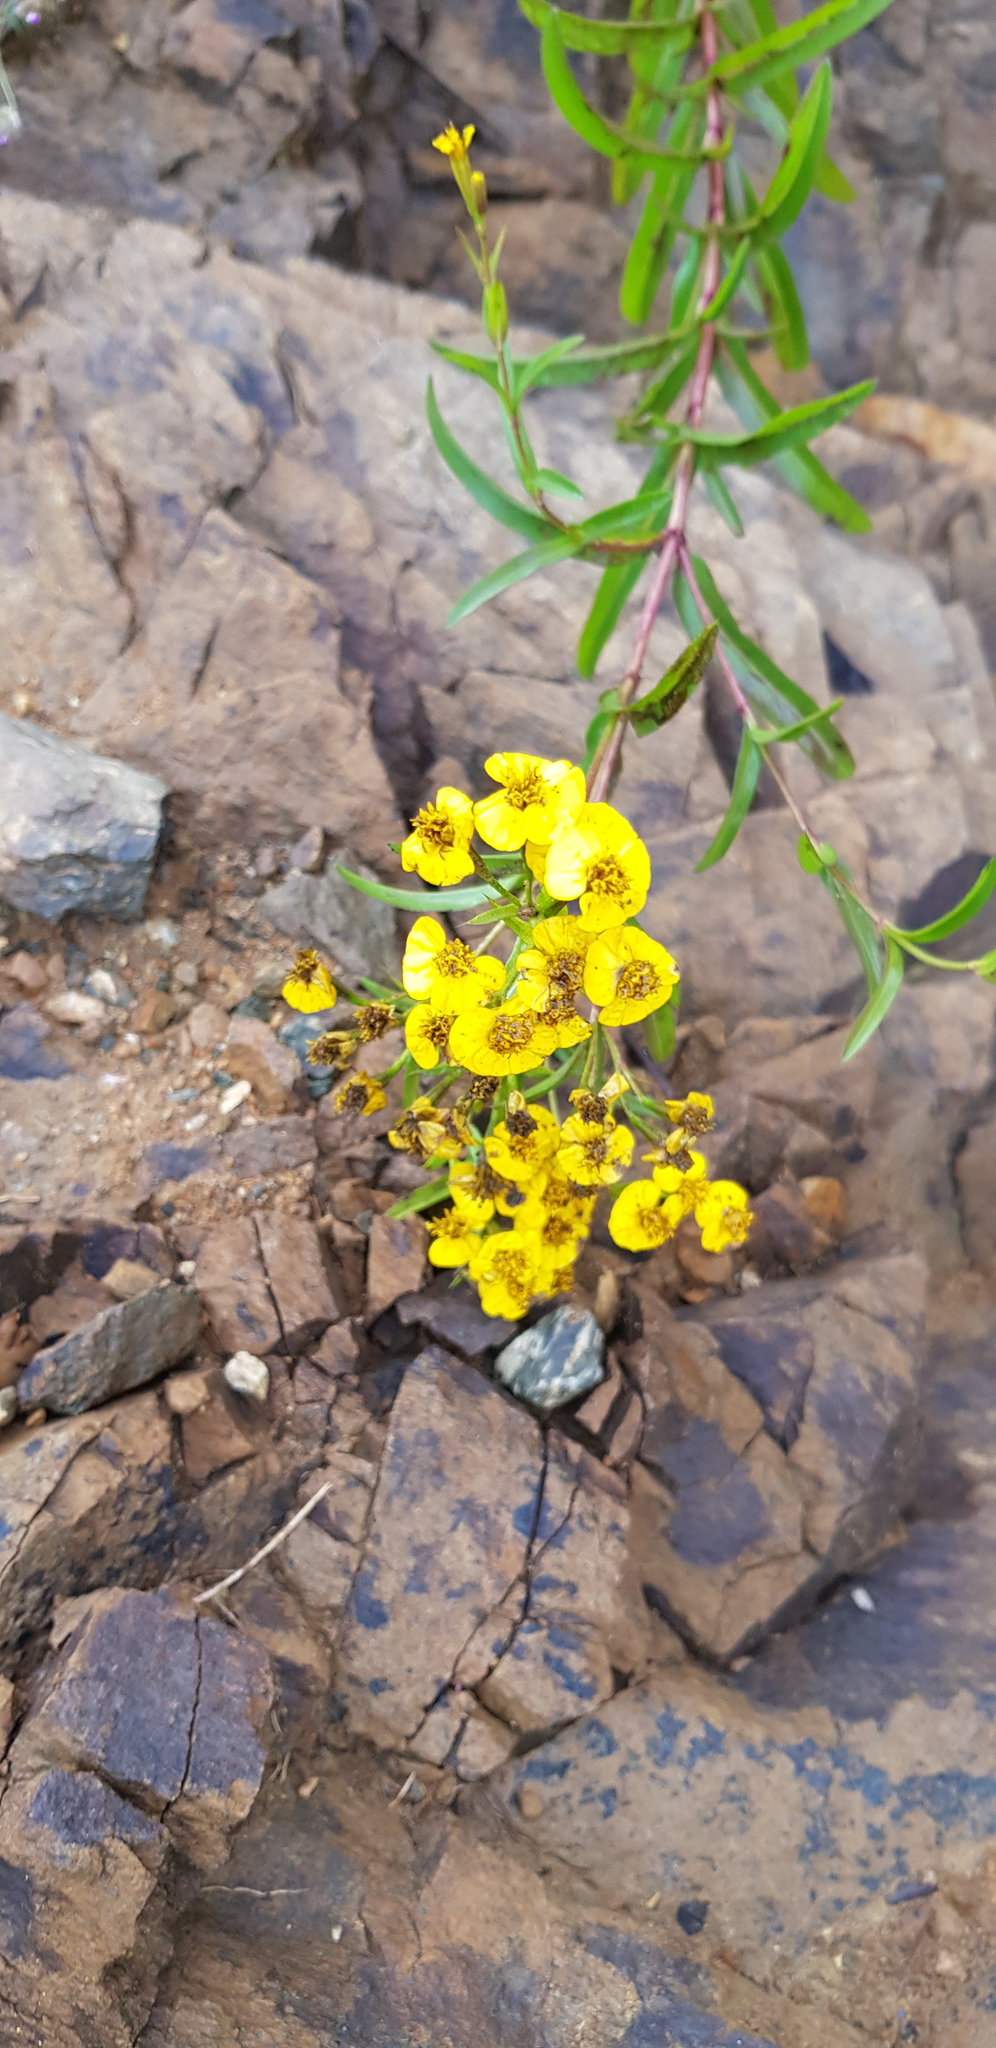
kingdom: Plantae
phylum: Tracheophyta
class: Magnoliopsida
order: Asterales
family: Asteraceae
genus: Tagetes
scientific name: Tagetes lucida
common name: Sweetscented marigold
